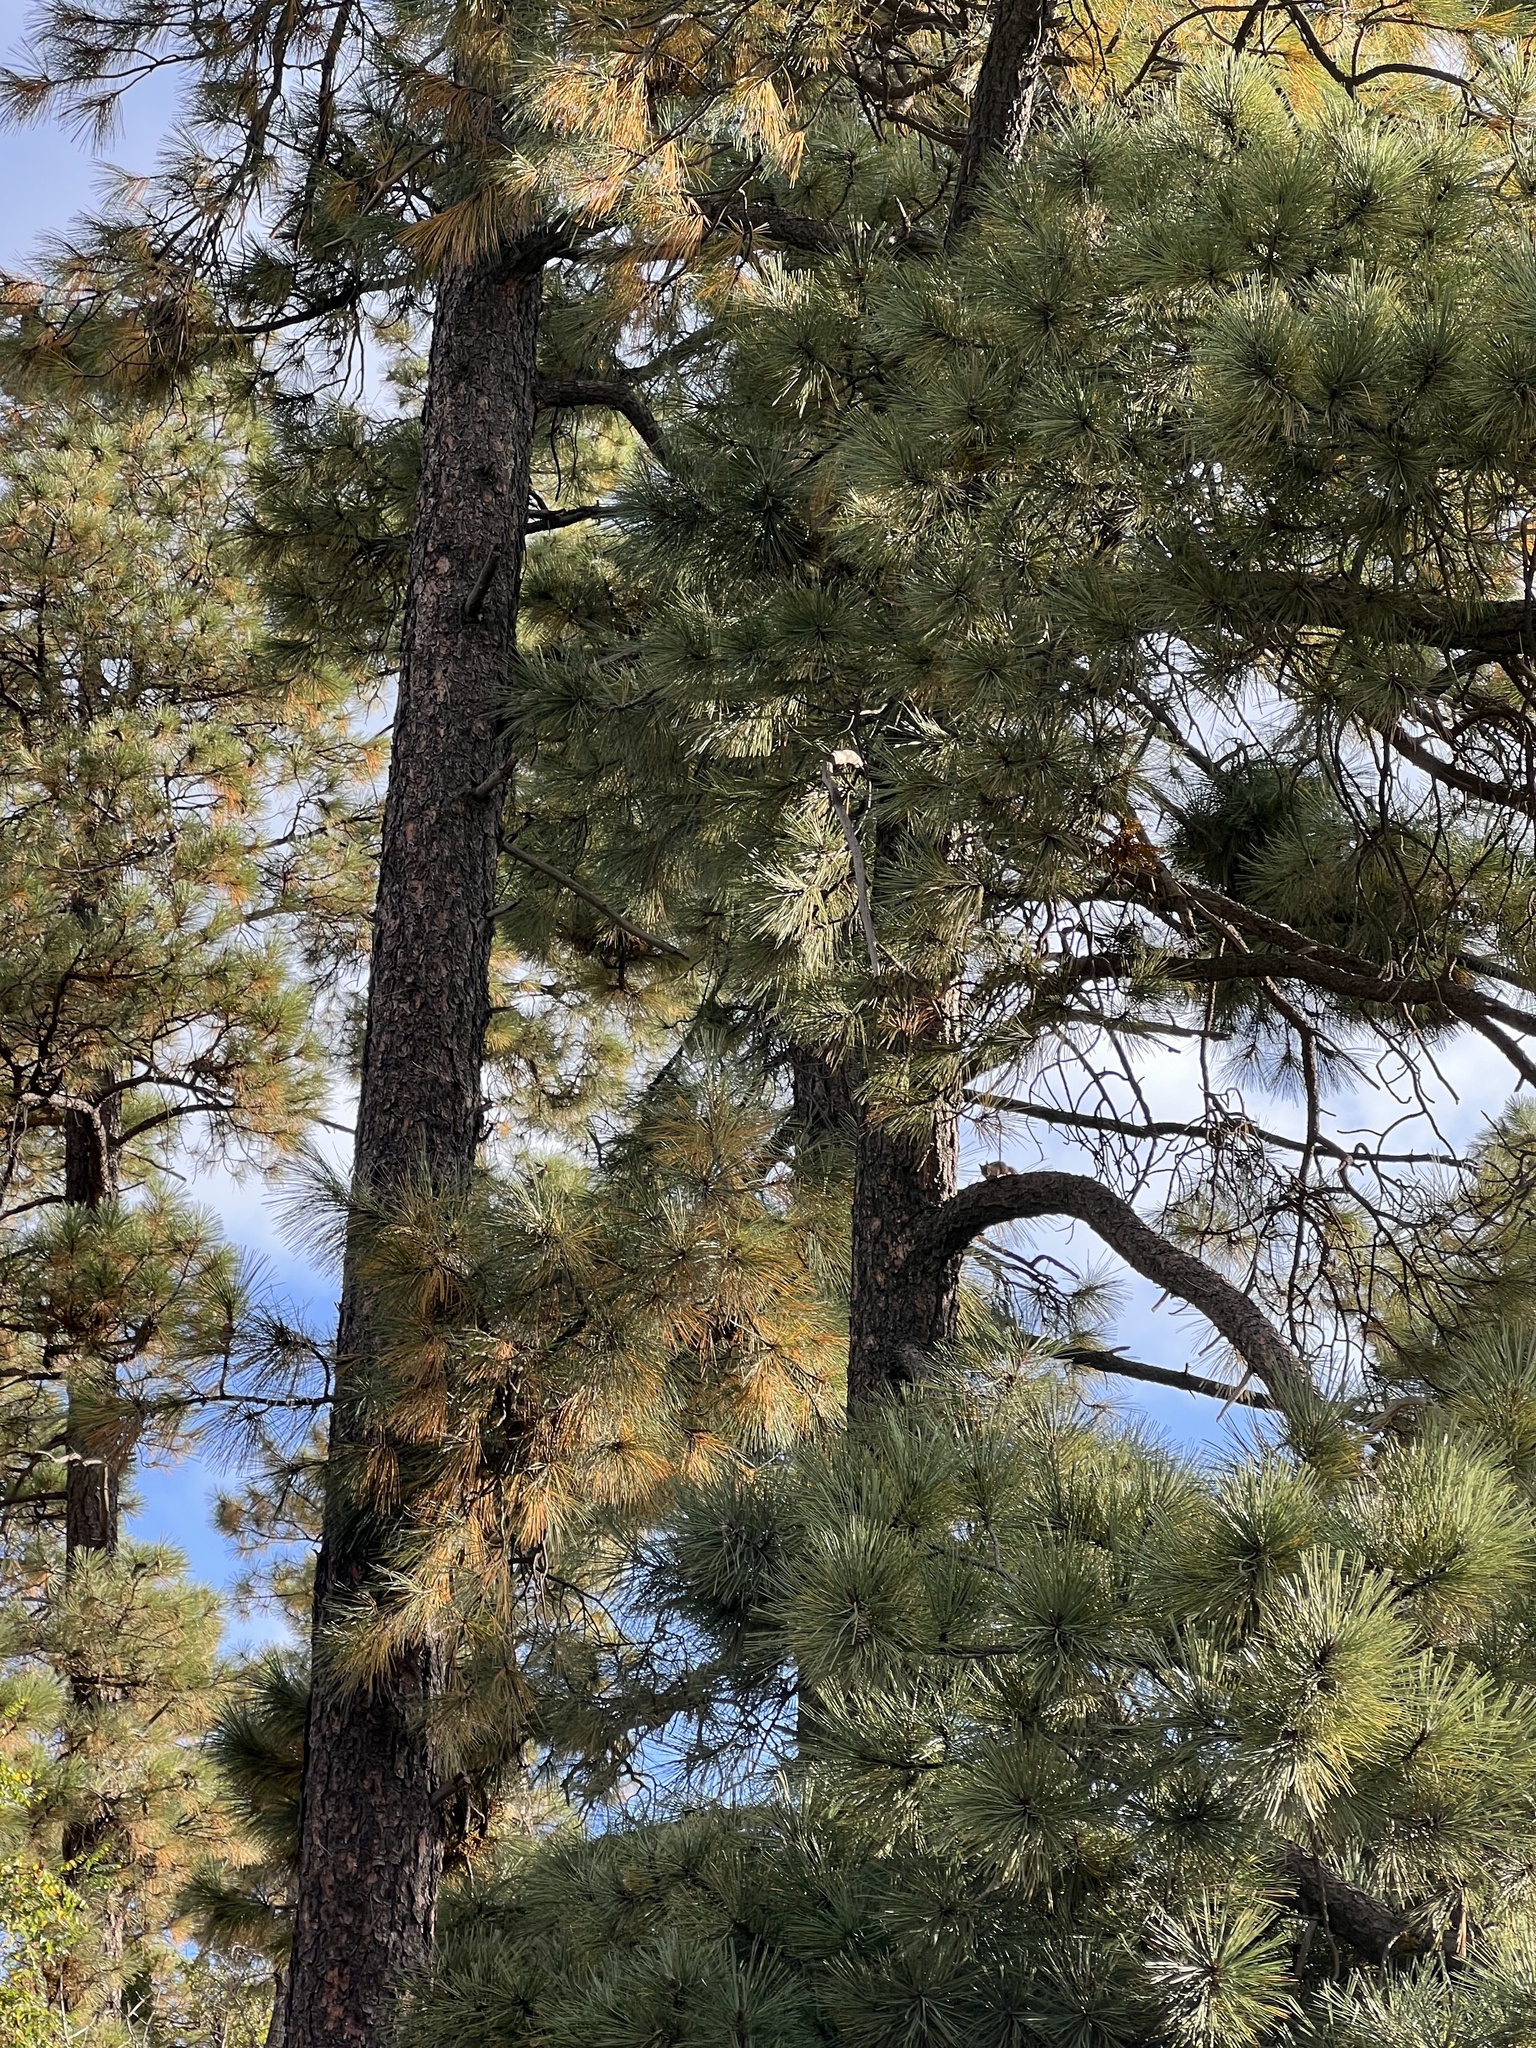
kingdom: Plantae
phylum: Tracheophyta
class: Pinopsida
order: Pinales
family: Pinaceae
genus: Pinus
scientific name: Pinus ponderosa
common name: Western yellow-pine
